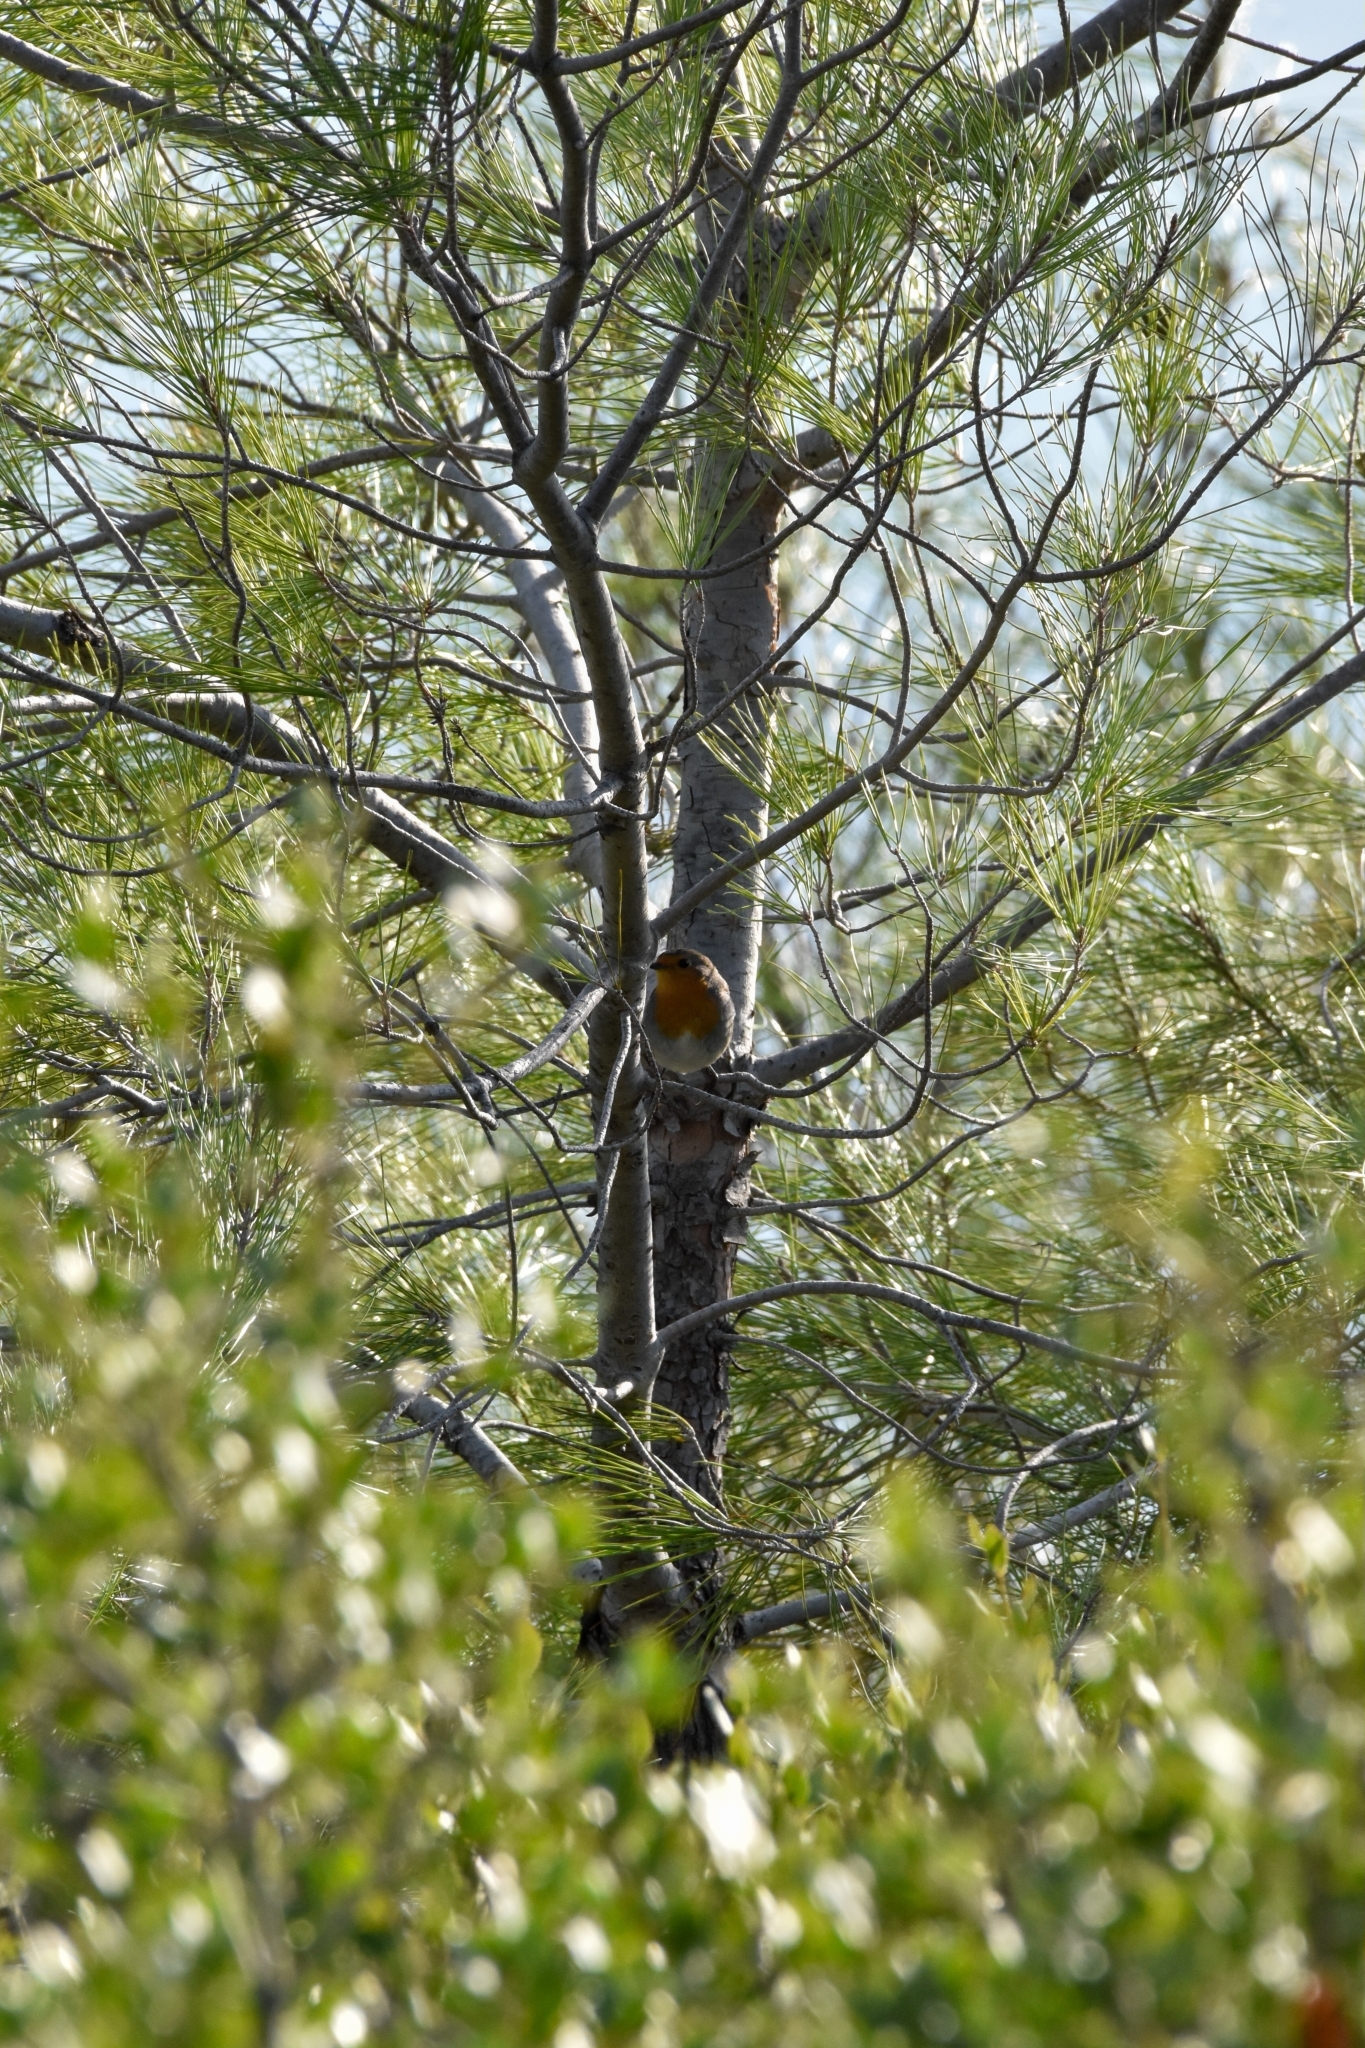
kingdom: Animalia
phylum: Chordata
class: Aves
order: Passeriformes
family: Muscicapidae
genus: Erithacus
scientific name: Erithacus rubecula
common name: European robin
